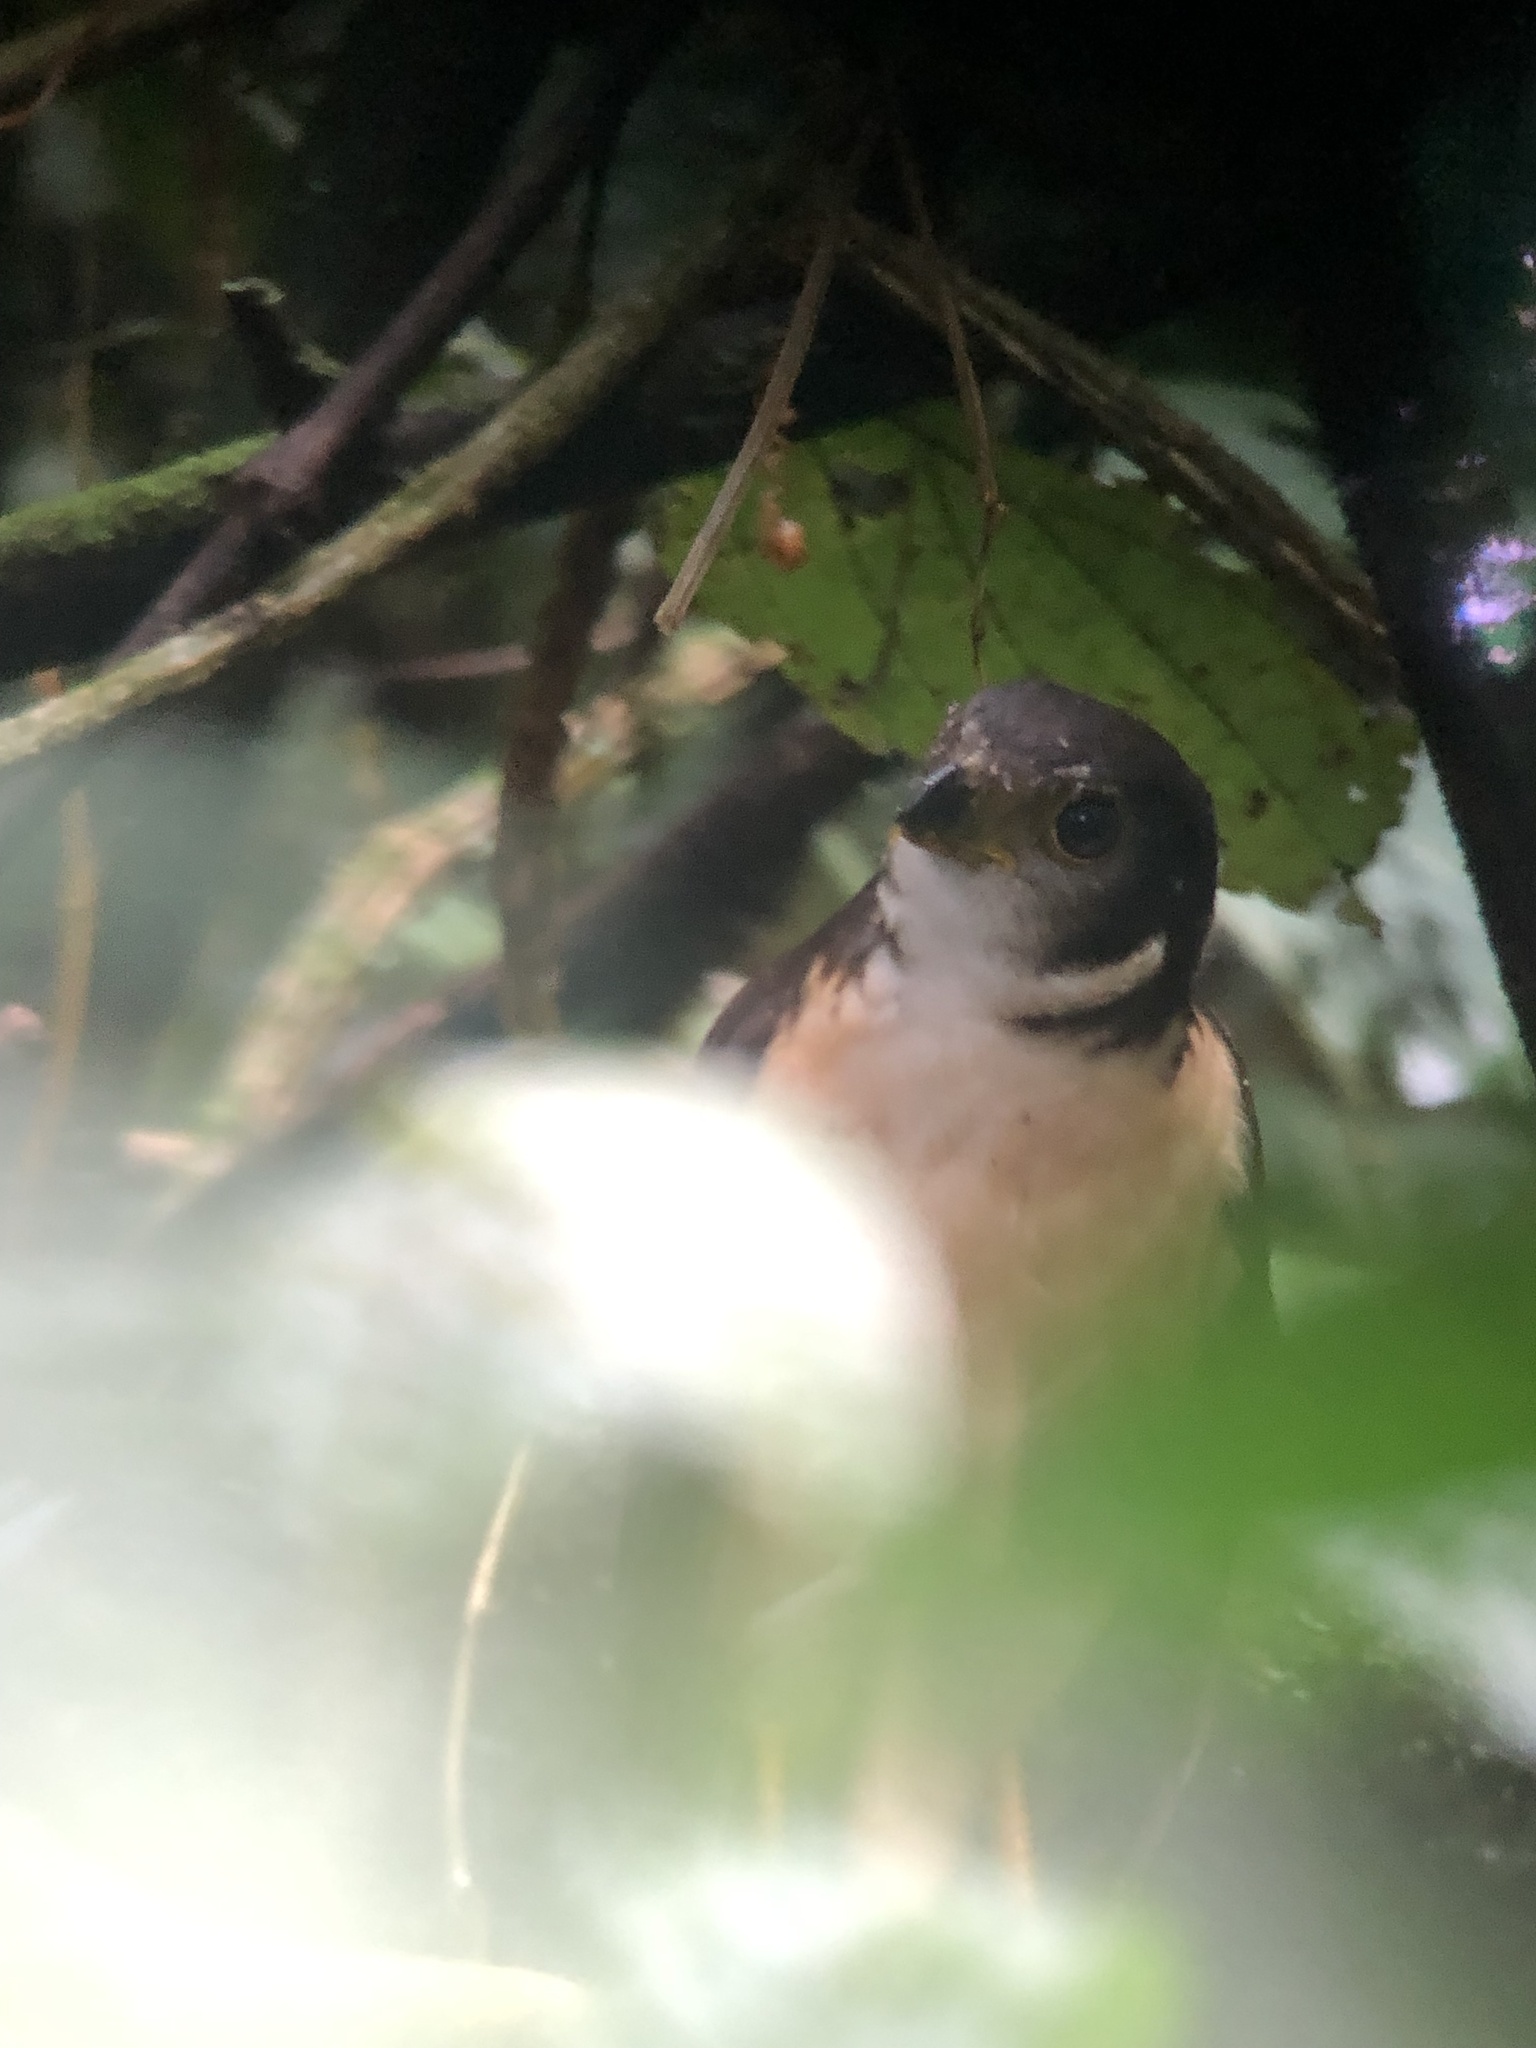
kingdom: Animalia
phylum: Chordata
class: Aves
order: Falconiformes
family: Falconidae
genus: Micrastur
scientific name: Micrastur ruficollis
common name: Barred forest-falcon
